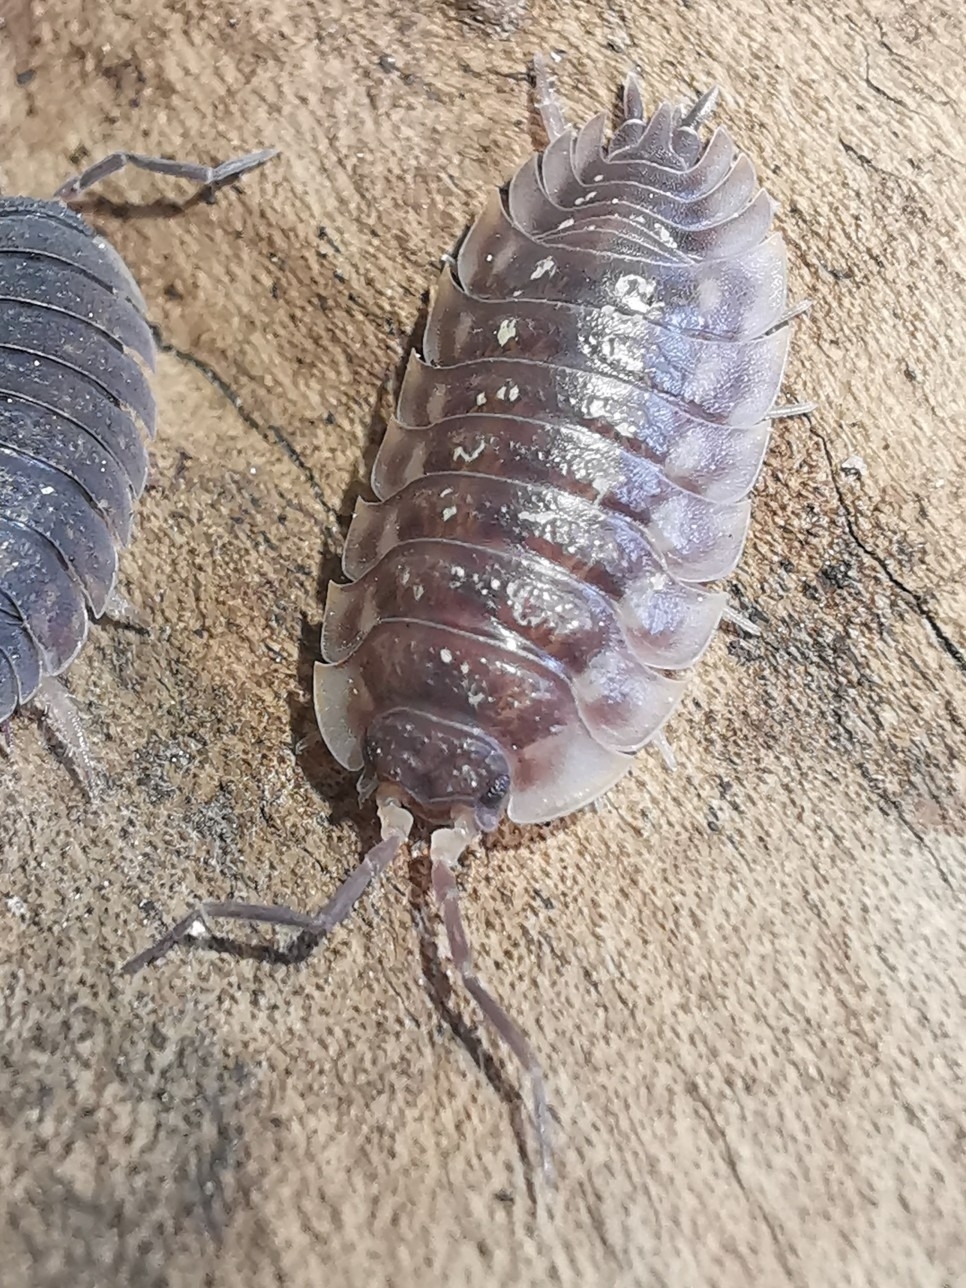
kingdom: Animalia
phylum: Arthropoda
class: Malacostraca
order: Isopoda
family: Oniscidae
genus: Oniscus
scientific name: Oniscus asellus
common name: Common shiny woodlouse
